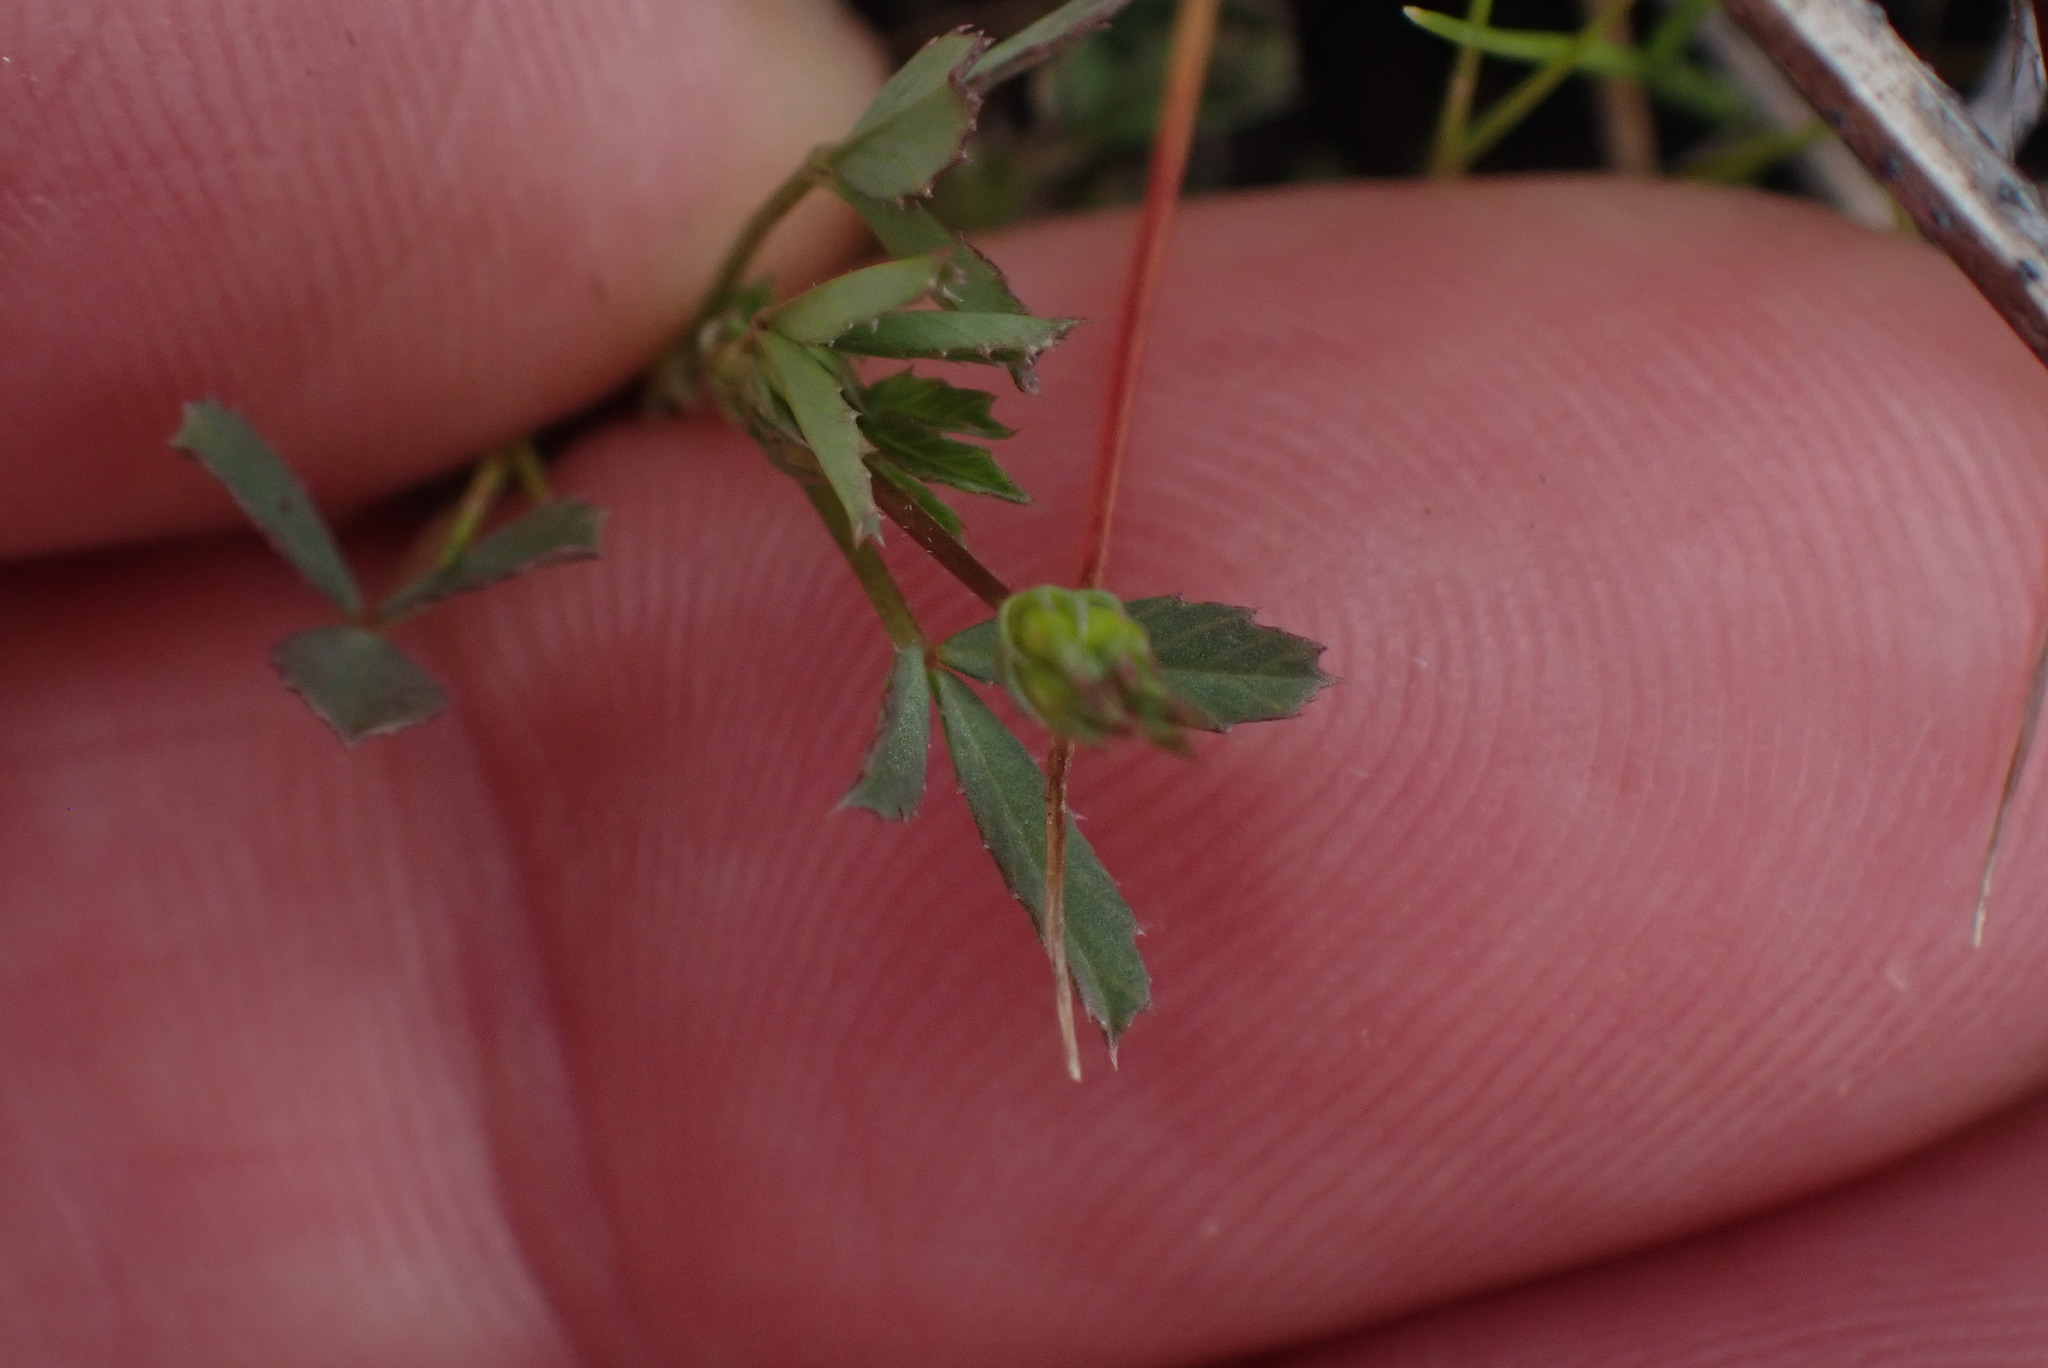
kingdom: Plantae
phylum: Tracheophyta
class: Magnoliopsida
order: Fabales
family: Fabaceae
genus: Trifolium
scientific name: Trifolium oliganthum
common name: Few-flower clover
